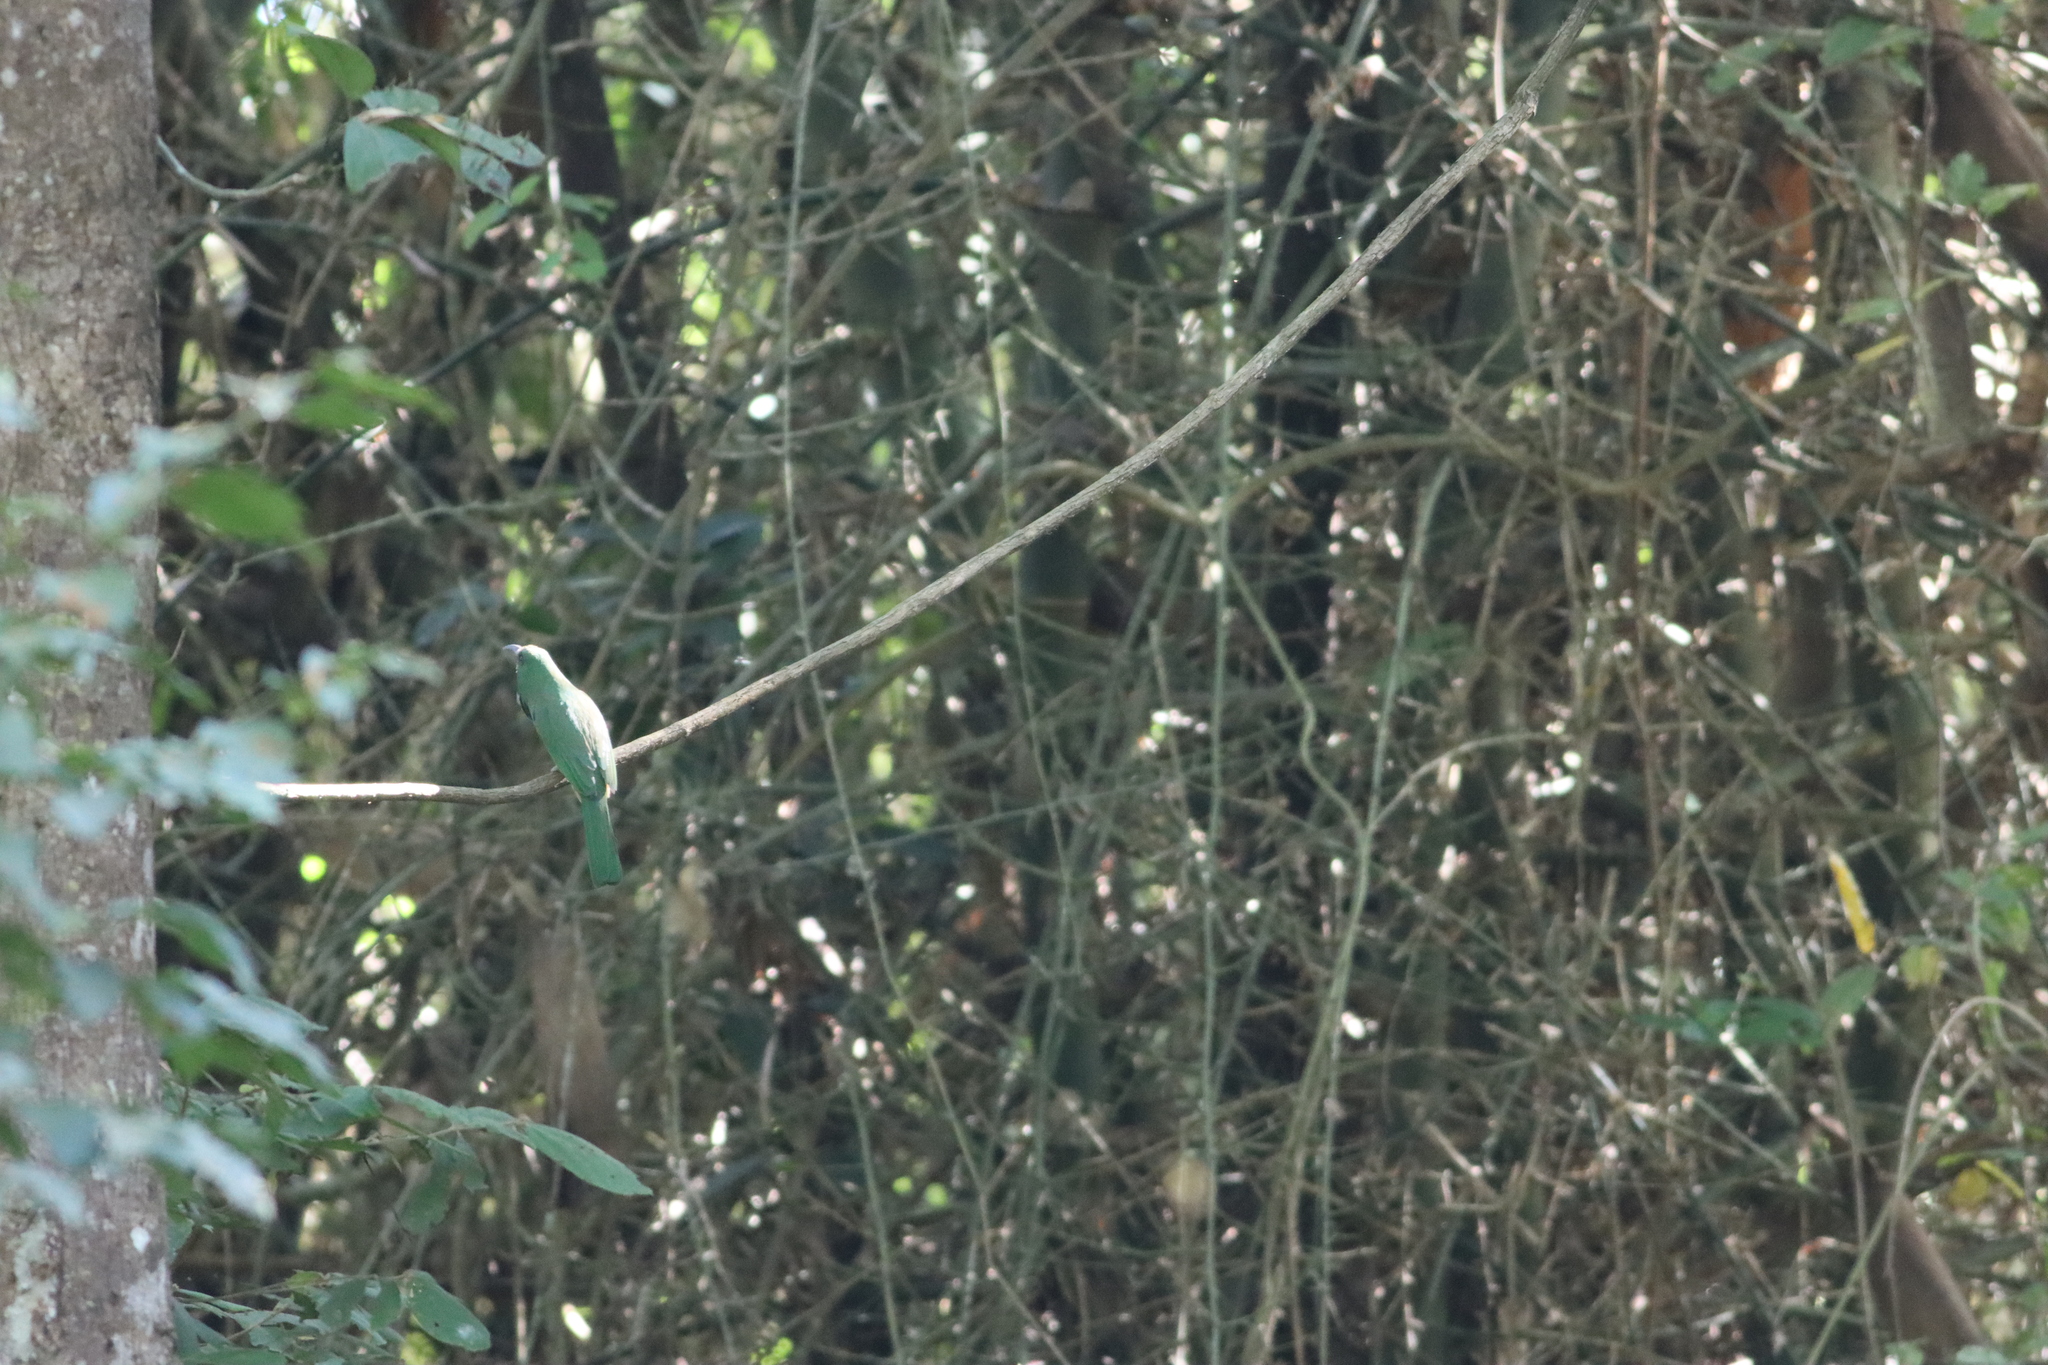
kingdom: Animalia
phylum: Chordata
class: Aves
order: Coraciiformes
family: Meropidae
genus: Nyctyornis
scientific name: Nyctyornis athertoni
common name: Blue-bearded bee-eater
